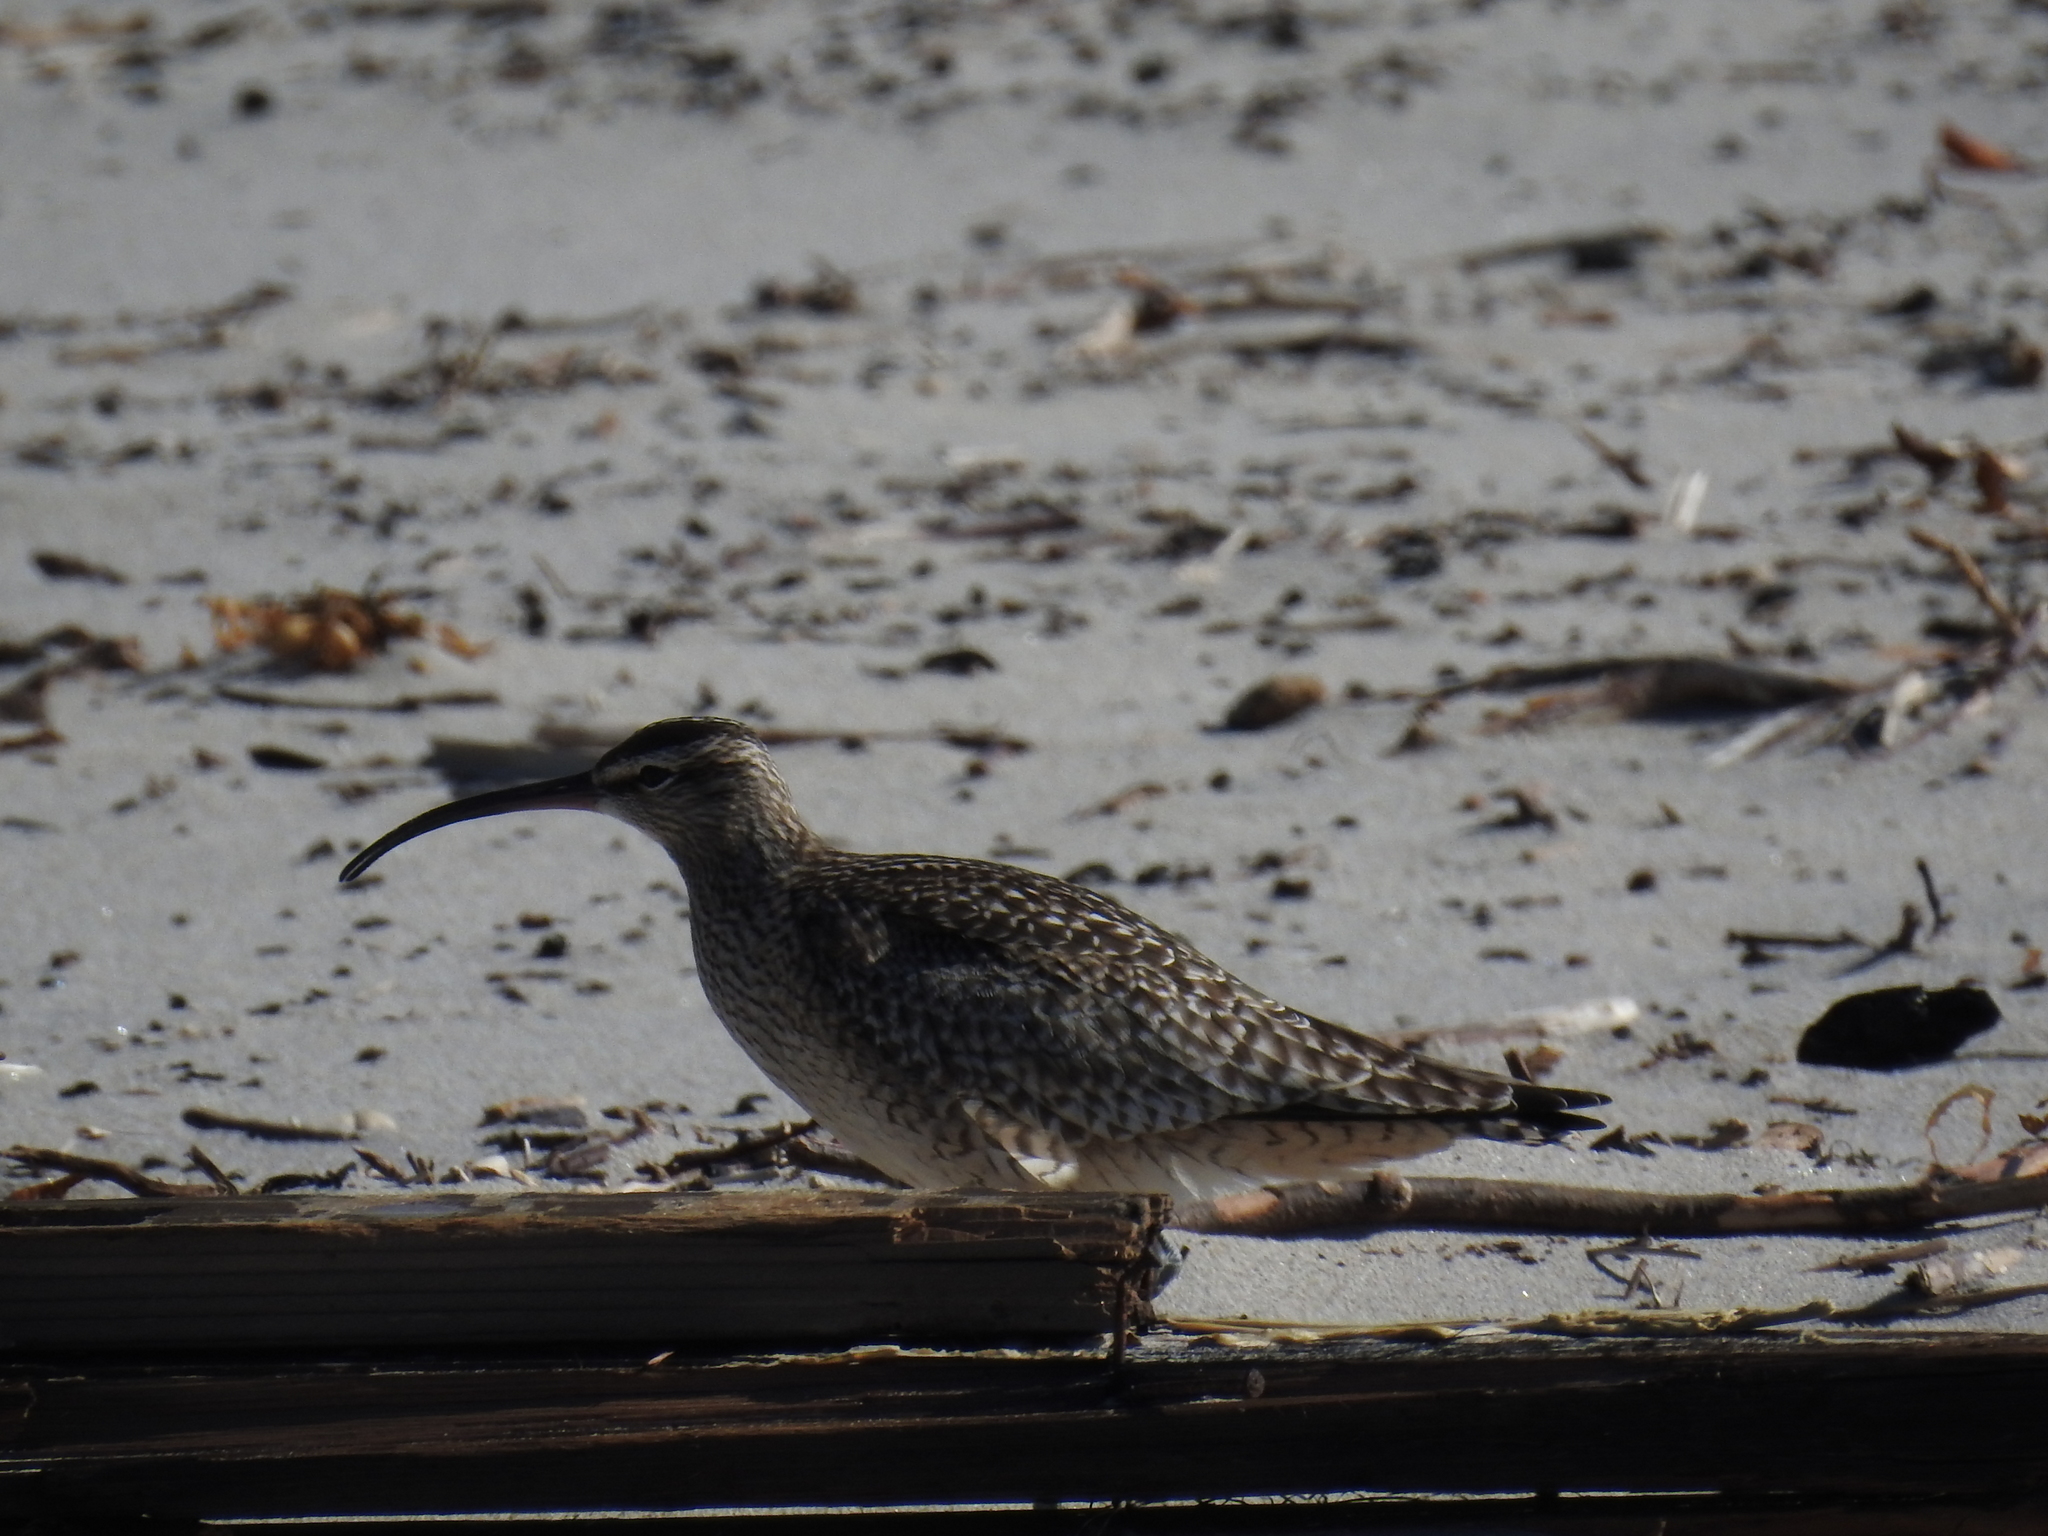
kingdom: Animalia
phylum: Chordata
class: Aves
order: Charadriiformes
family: Scolopacidae
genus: Numenius
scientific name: Numenius phaeopus
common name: Whimbrel
